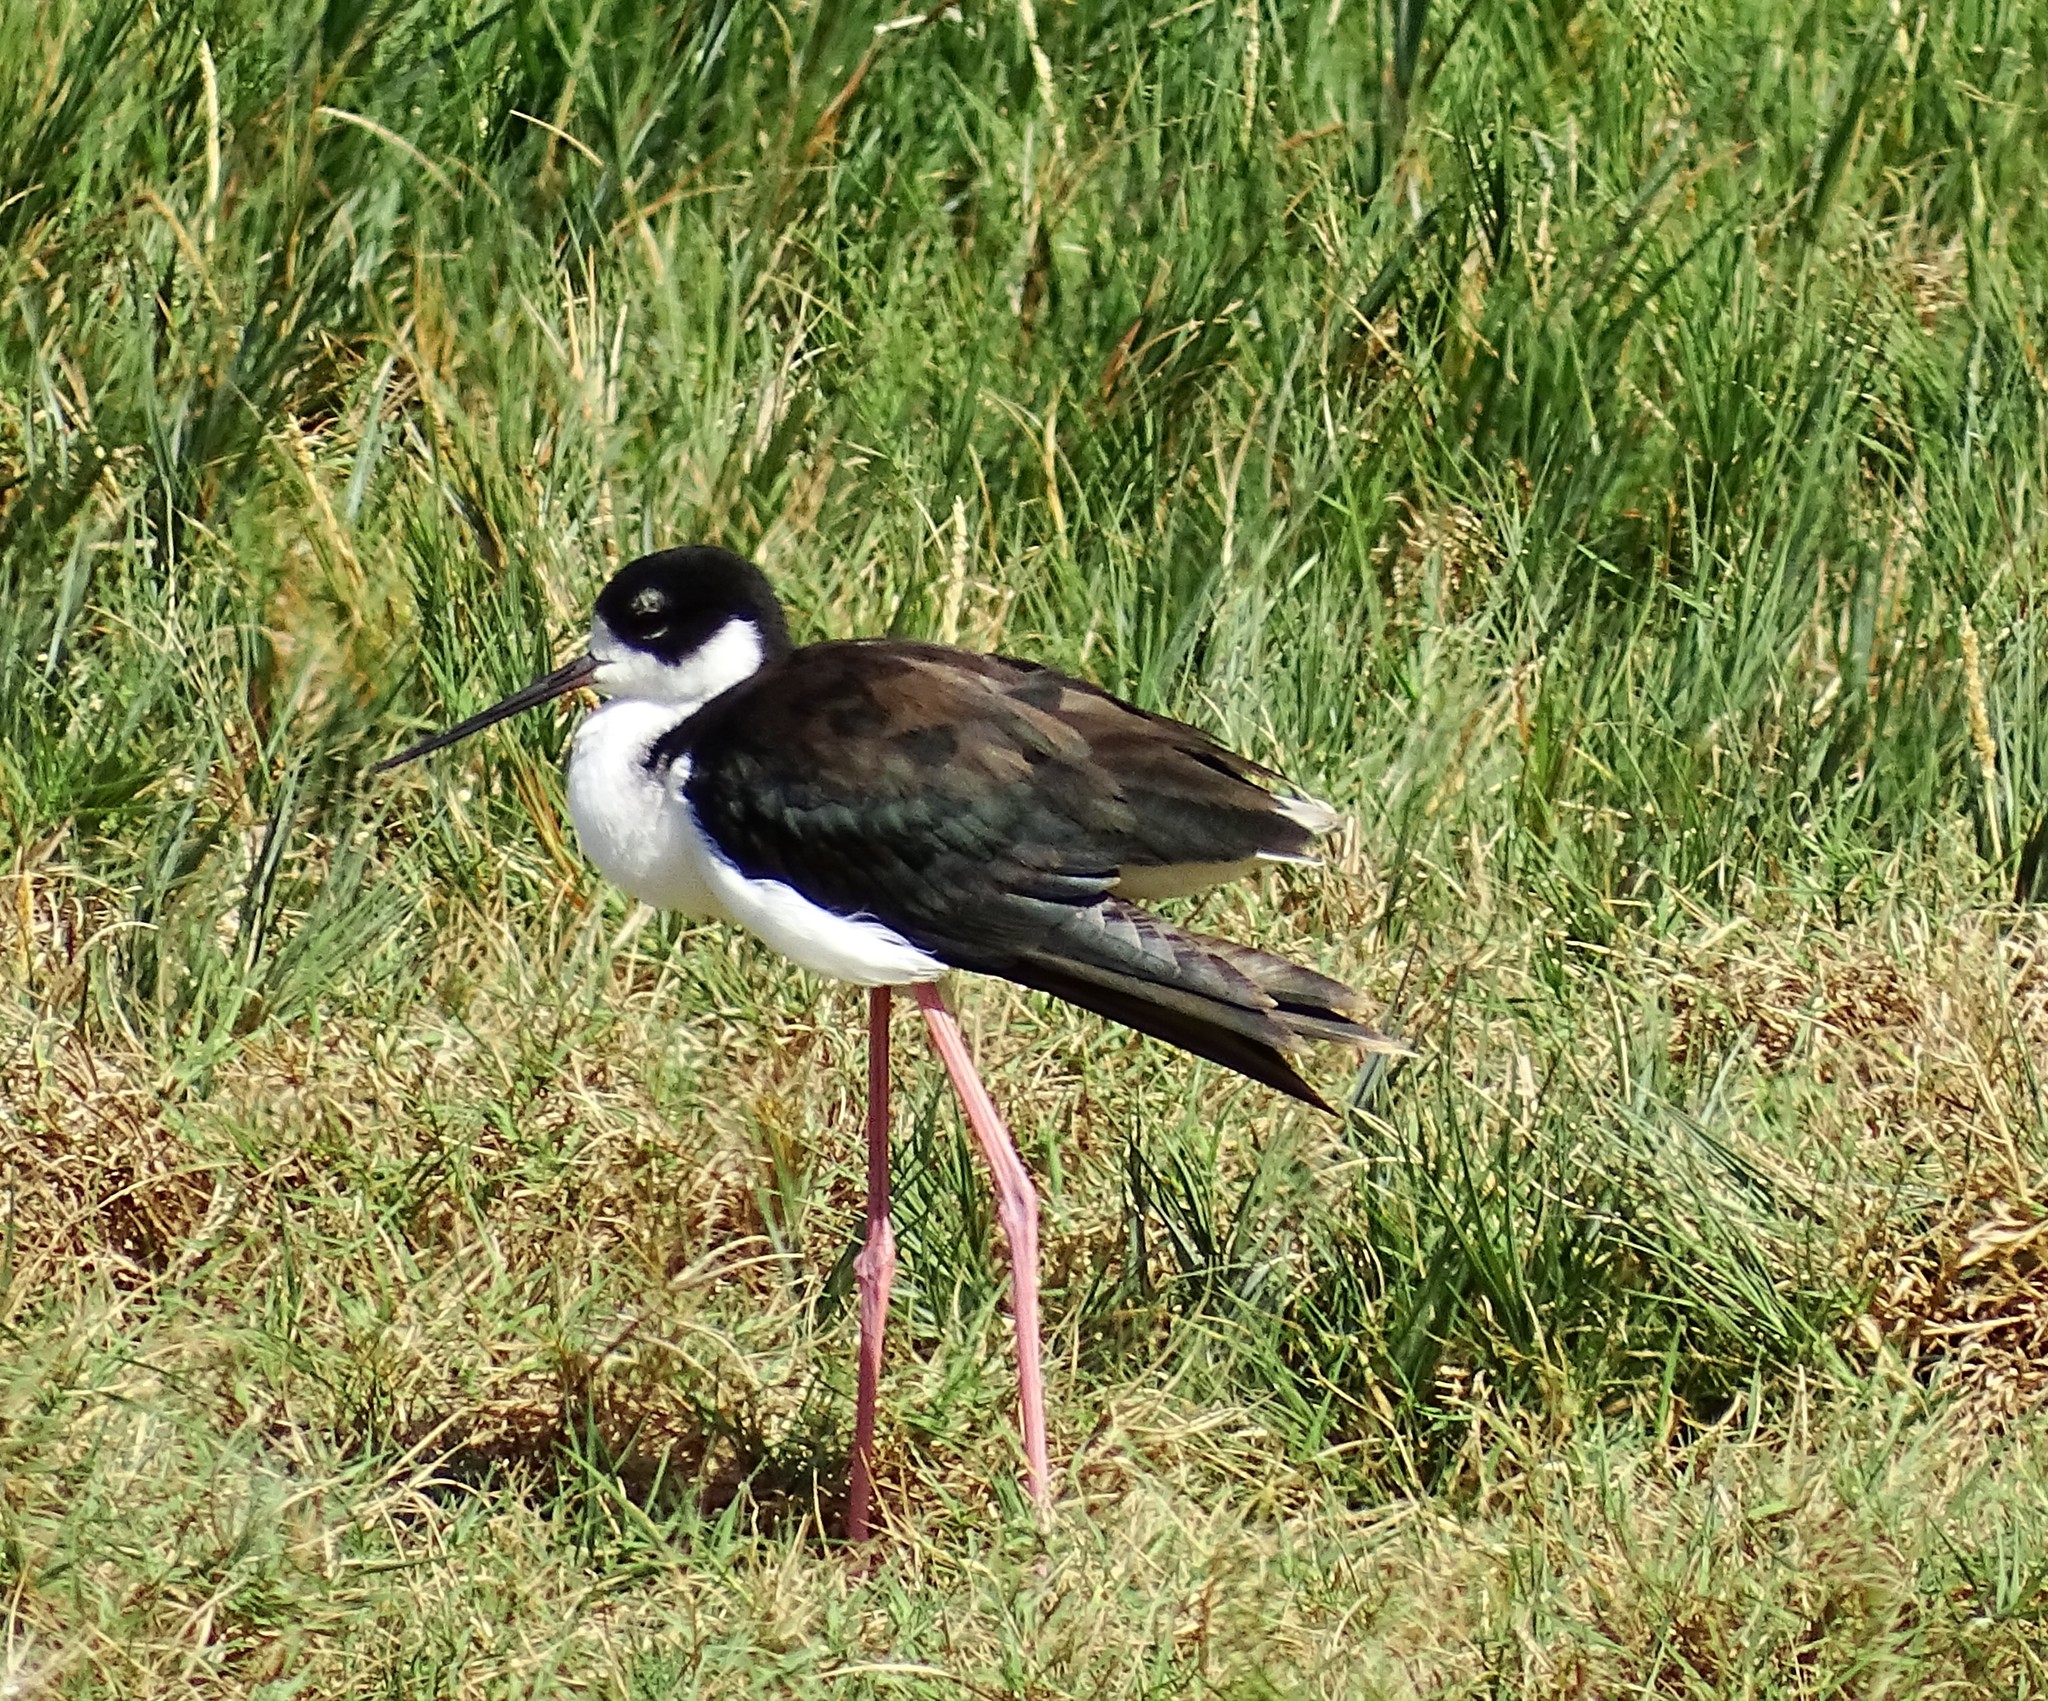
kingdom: Animalia
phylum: Chordata
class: Aves
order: Charadriiformes
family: Recurvirostridae
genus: Himantopus
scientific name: Himantopus mexicanus
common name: Black-necked stilt
